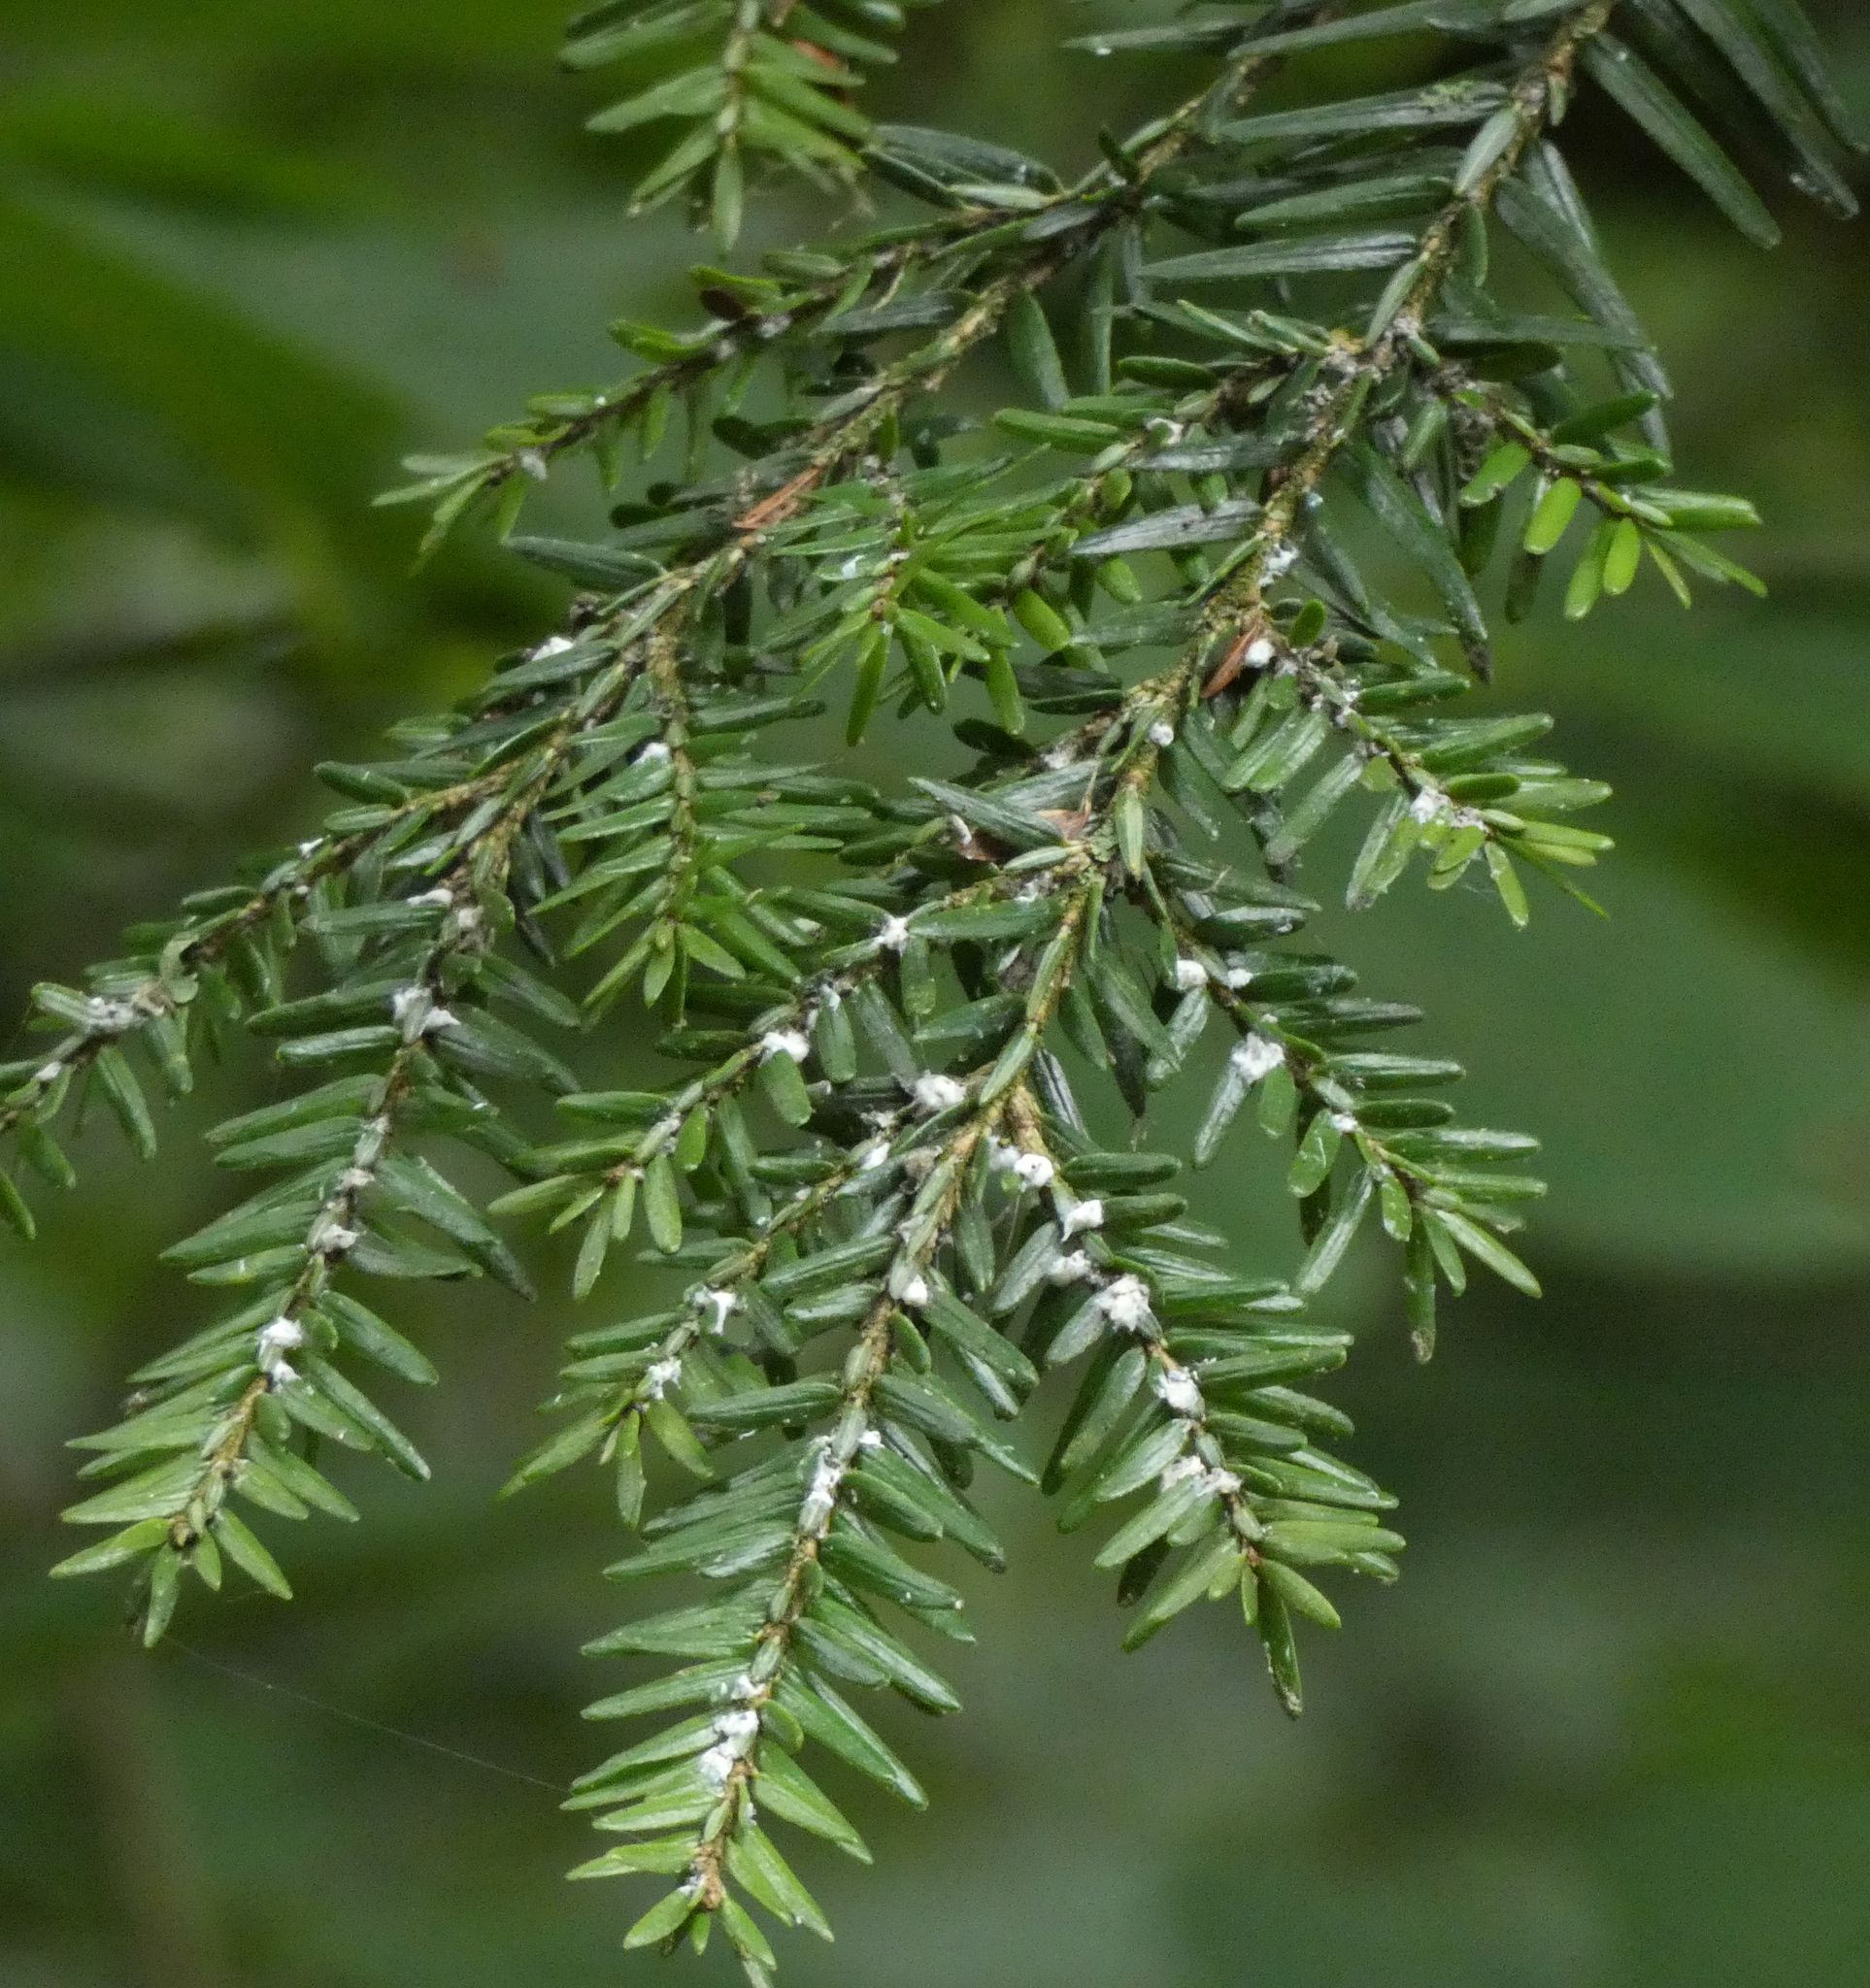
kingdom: Animalia
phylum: Arthropoda
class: Insecta
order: Hemiptera
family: Adelgidae
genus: Adelges
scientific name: Adelges tsugae
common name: Hemlock woolly adelgid
